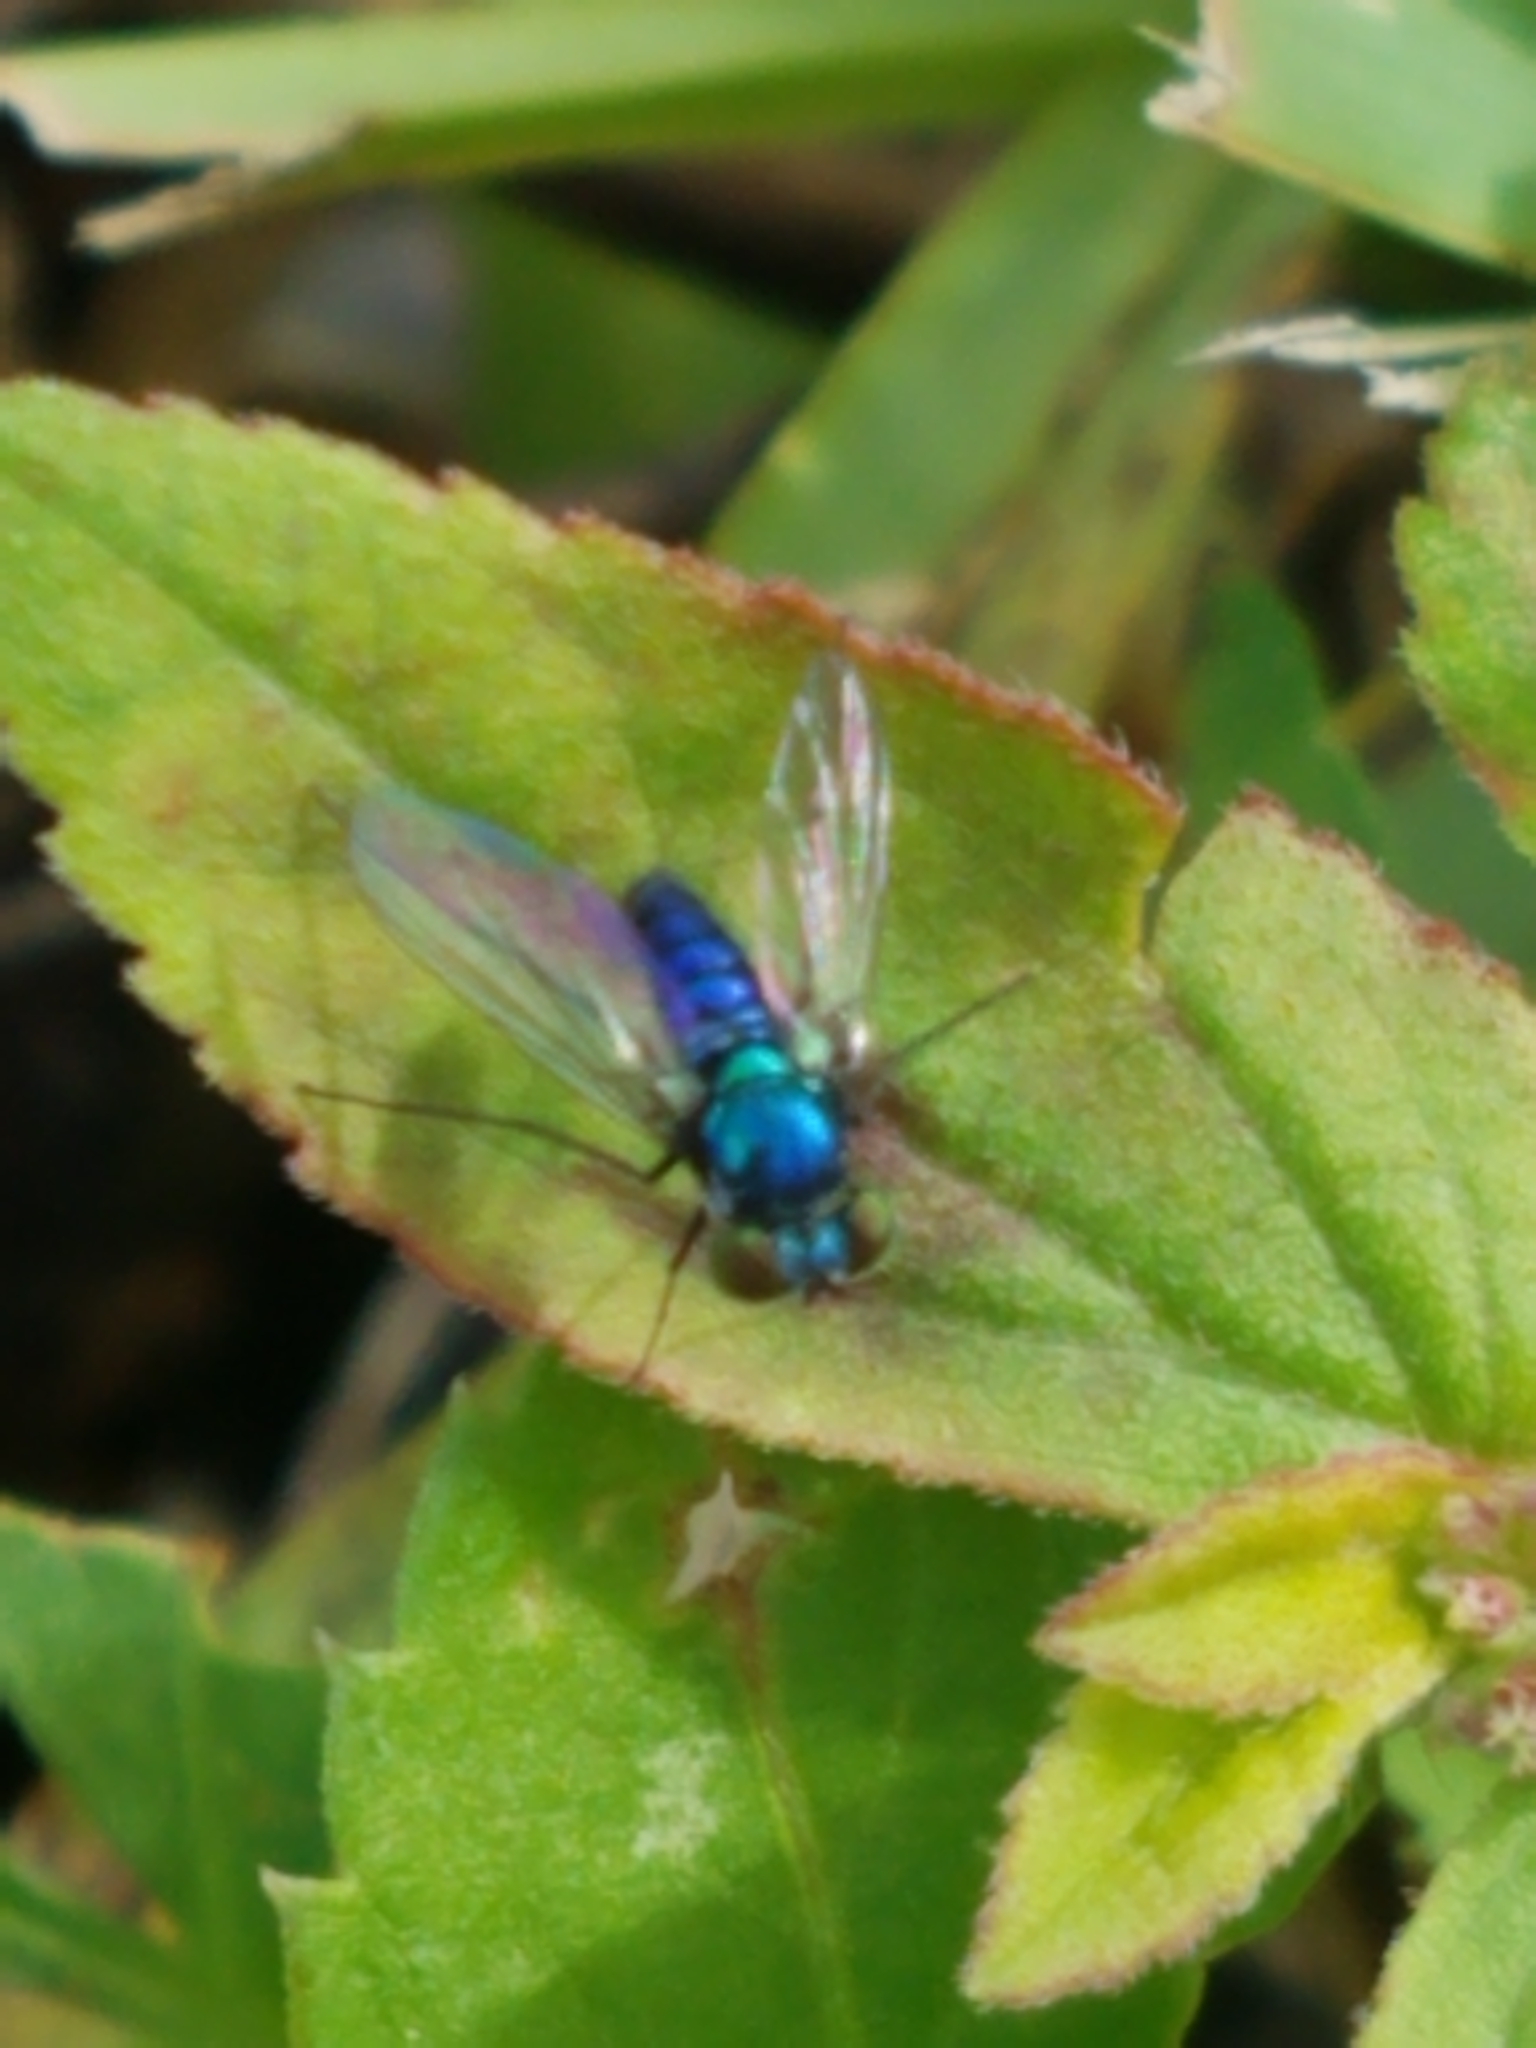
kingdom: Animalia
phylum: Arthropoda
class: Insecta
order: Diptera
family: Dolichopodidae
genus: Condylostylus
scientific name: Condylostylus purpureus
